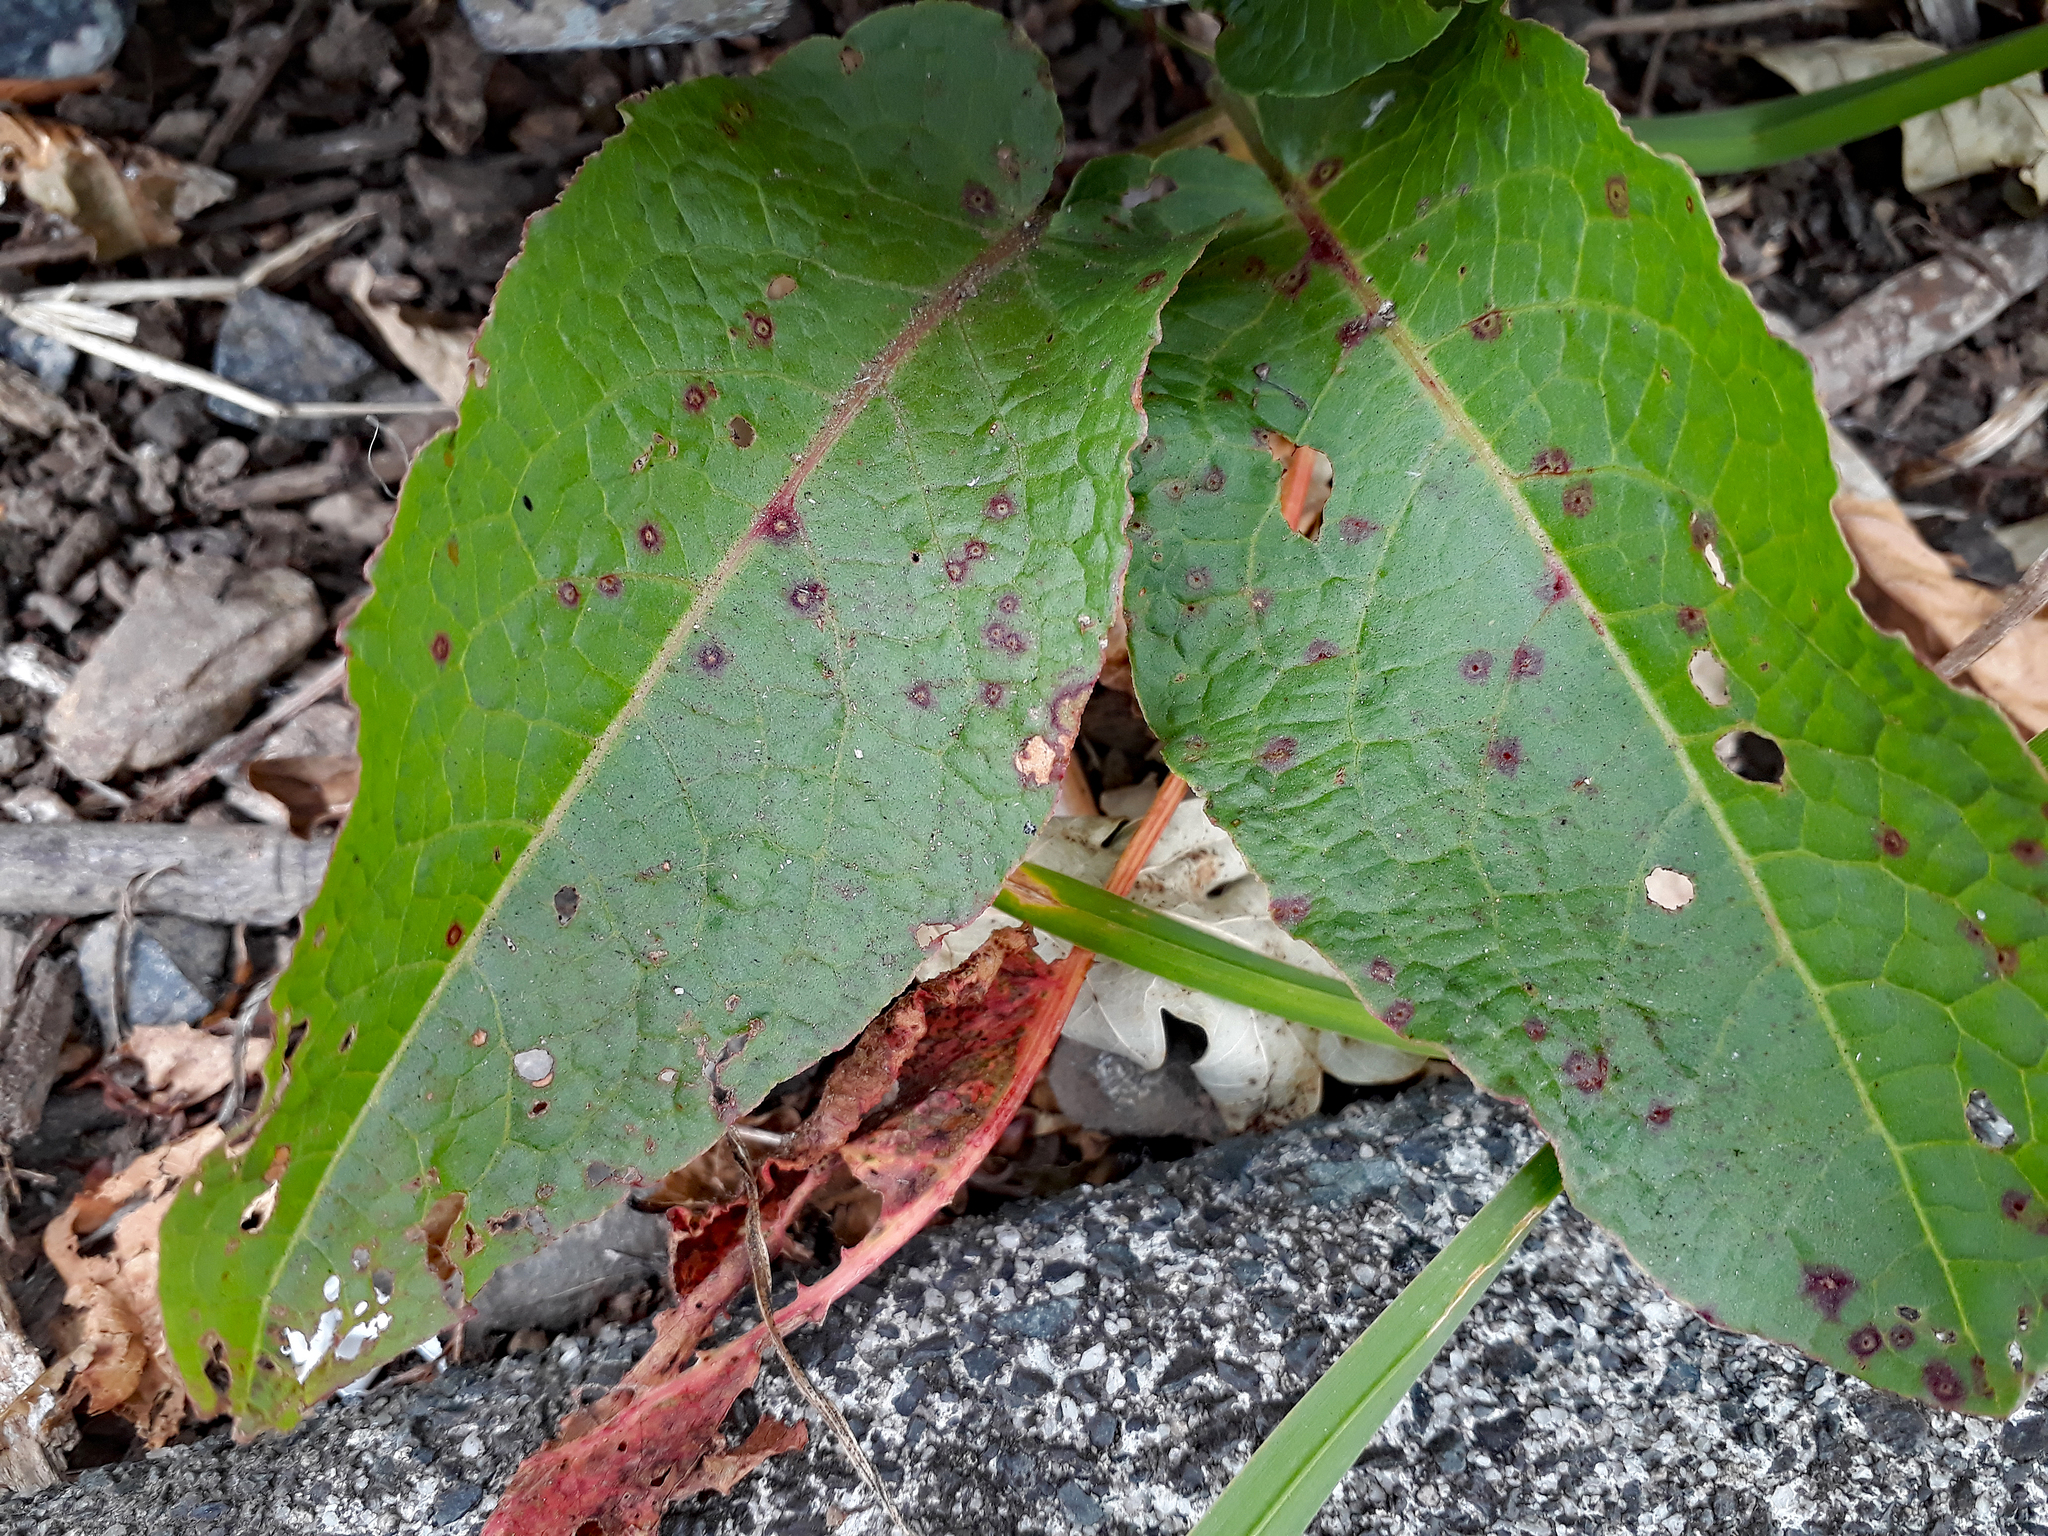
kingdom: Fungi
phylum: Ascomycota
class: Dothideomycetes
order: Mycosphaerellales
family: Mycosphaerellaceae
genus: Ramularia
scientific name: Ramularia rubella
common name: Red dock spot
